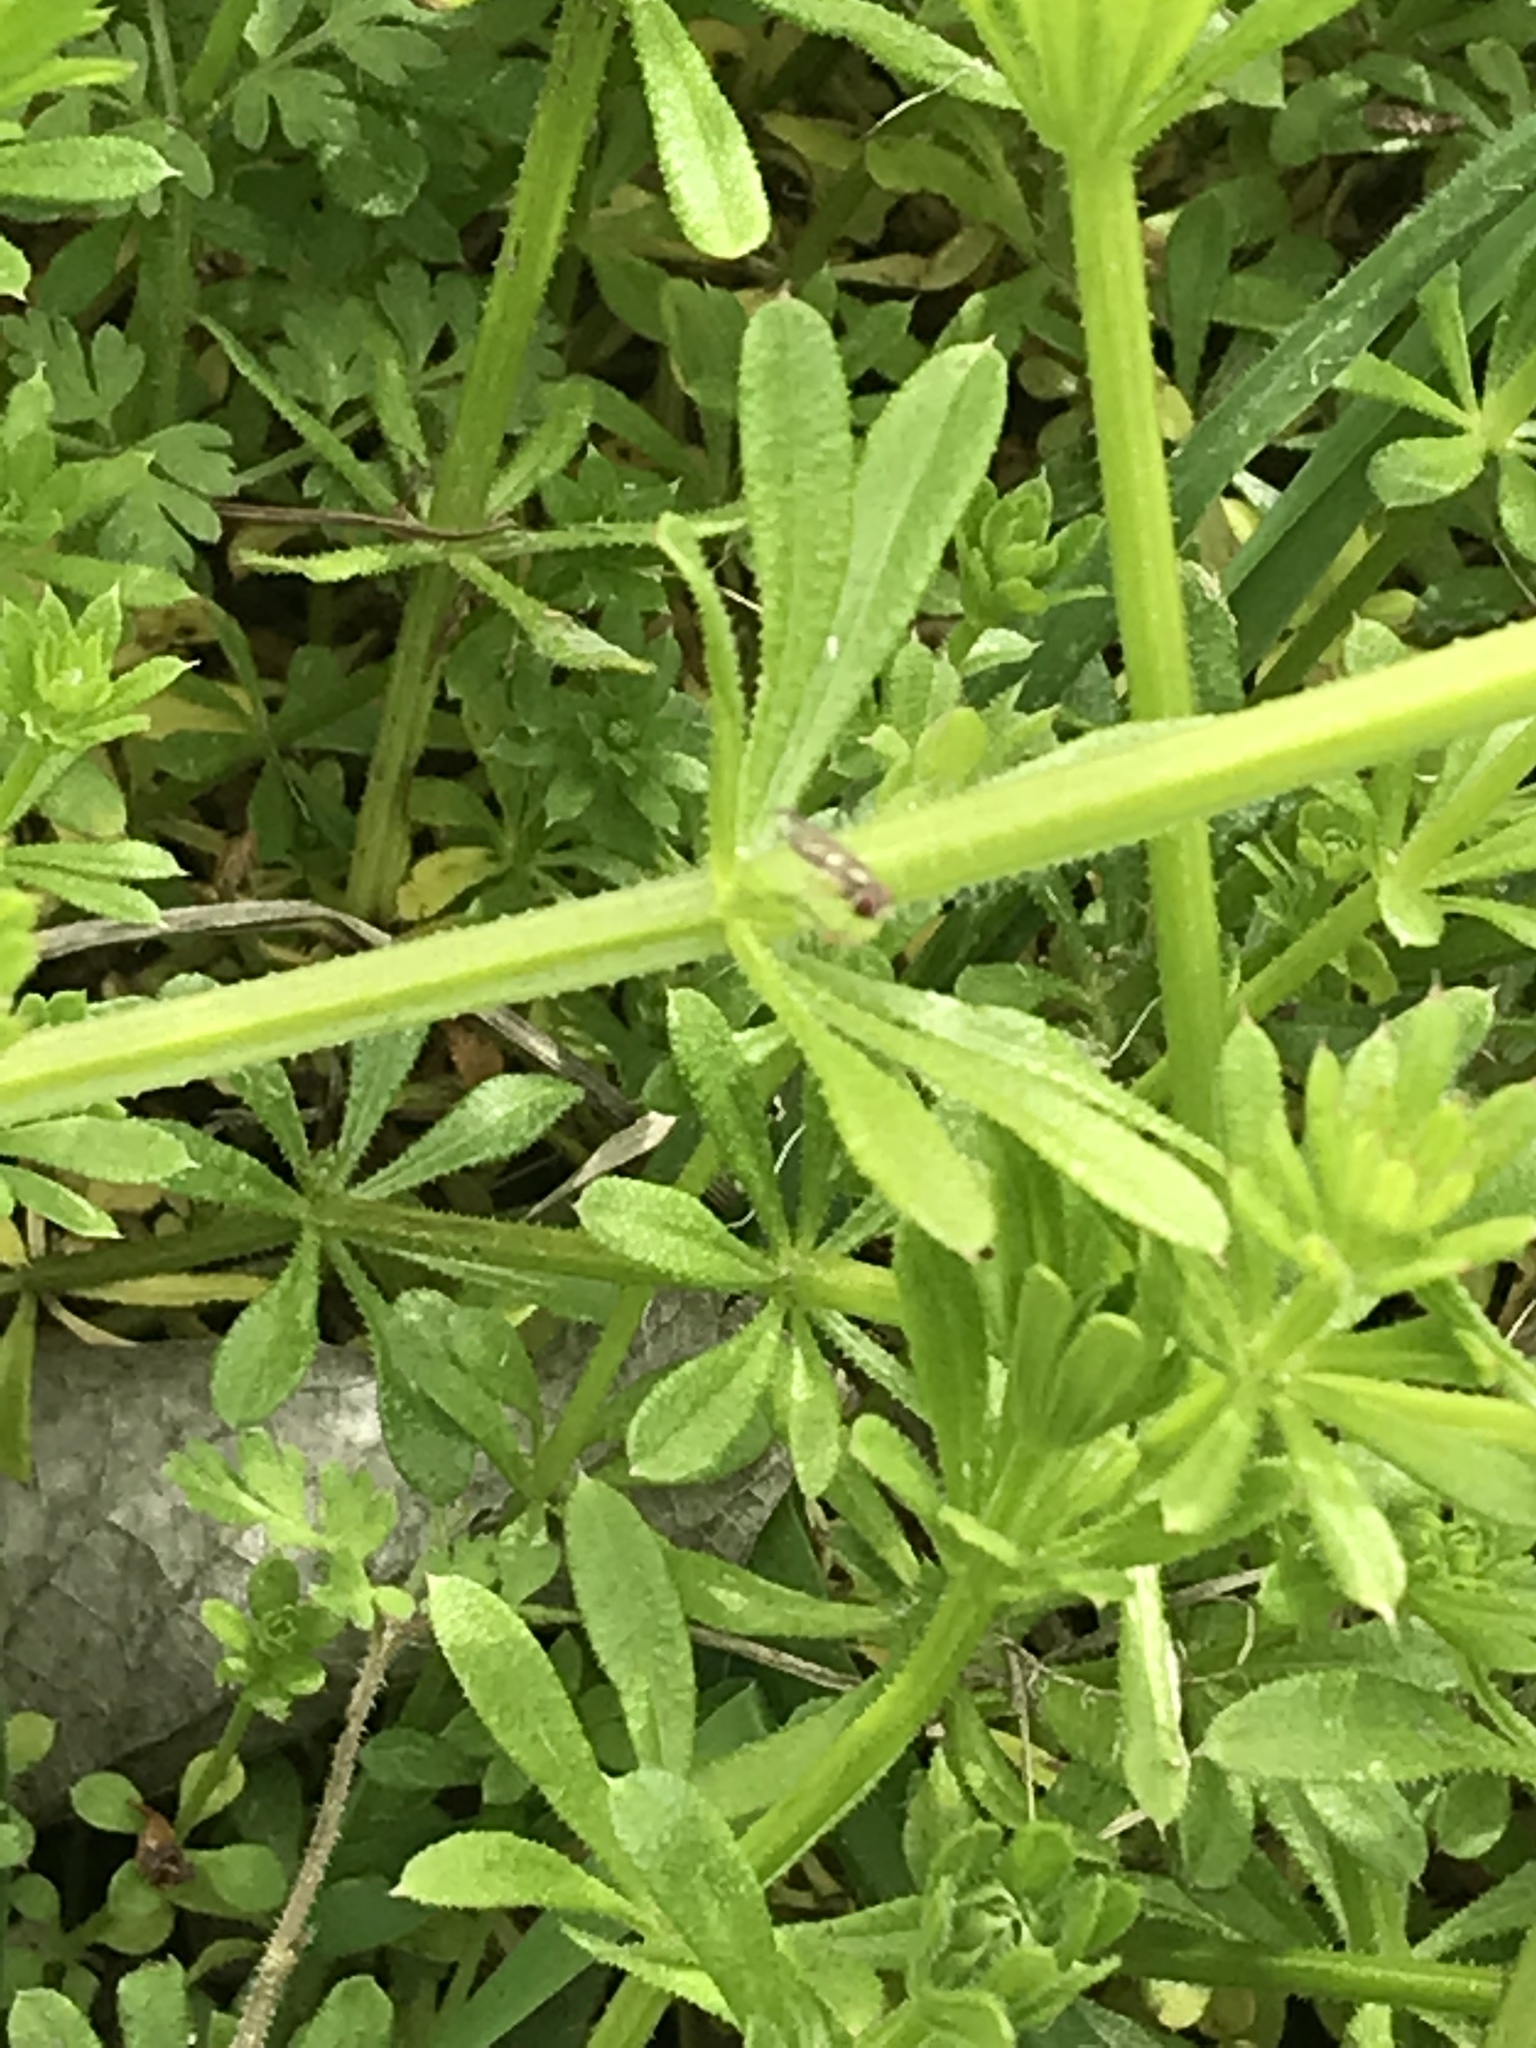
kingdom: Plantae
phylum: Tracheophyta
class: Magnoliopsida
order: Gentianales
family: Rubiaceae
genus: Galium
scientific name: Galium aparine
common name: Cleavers
